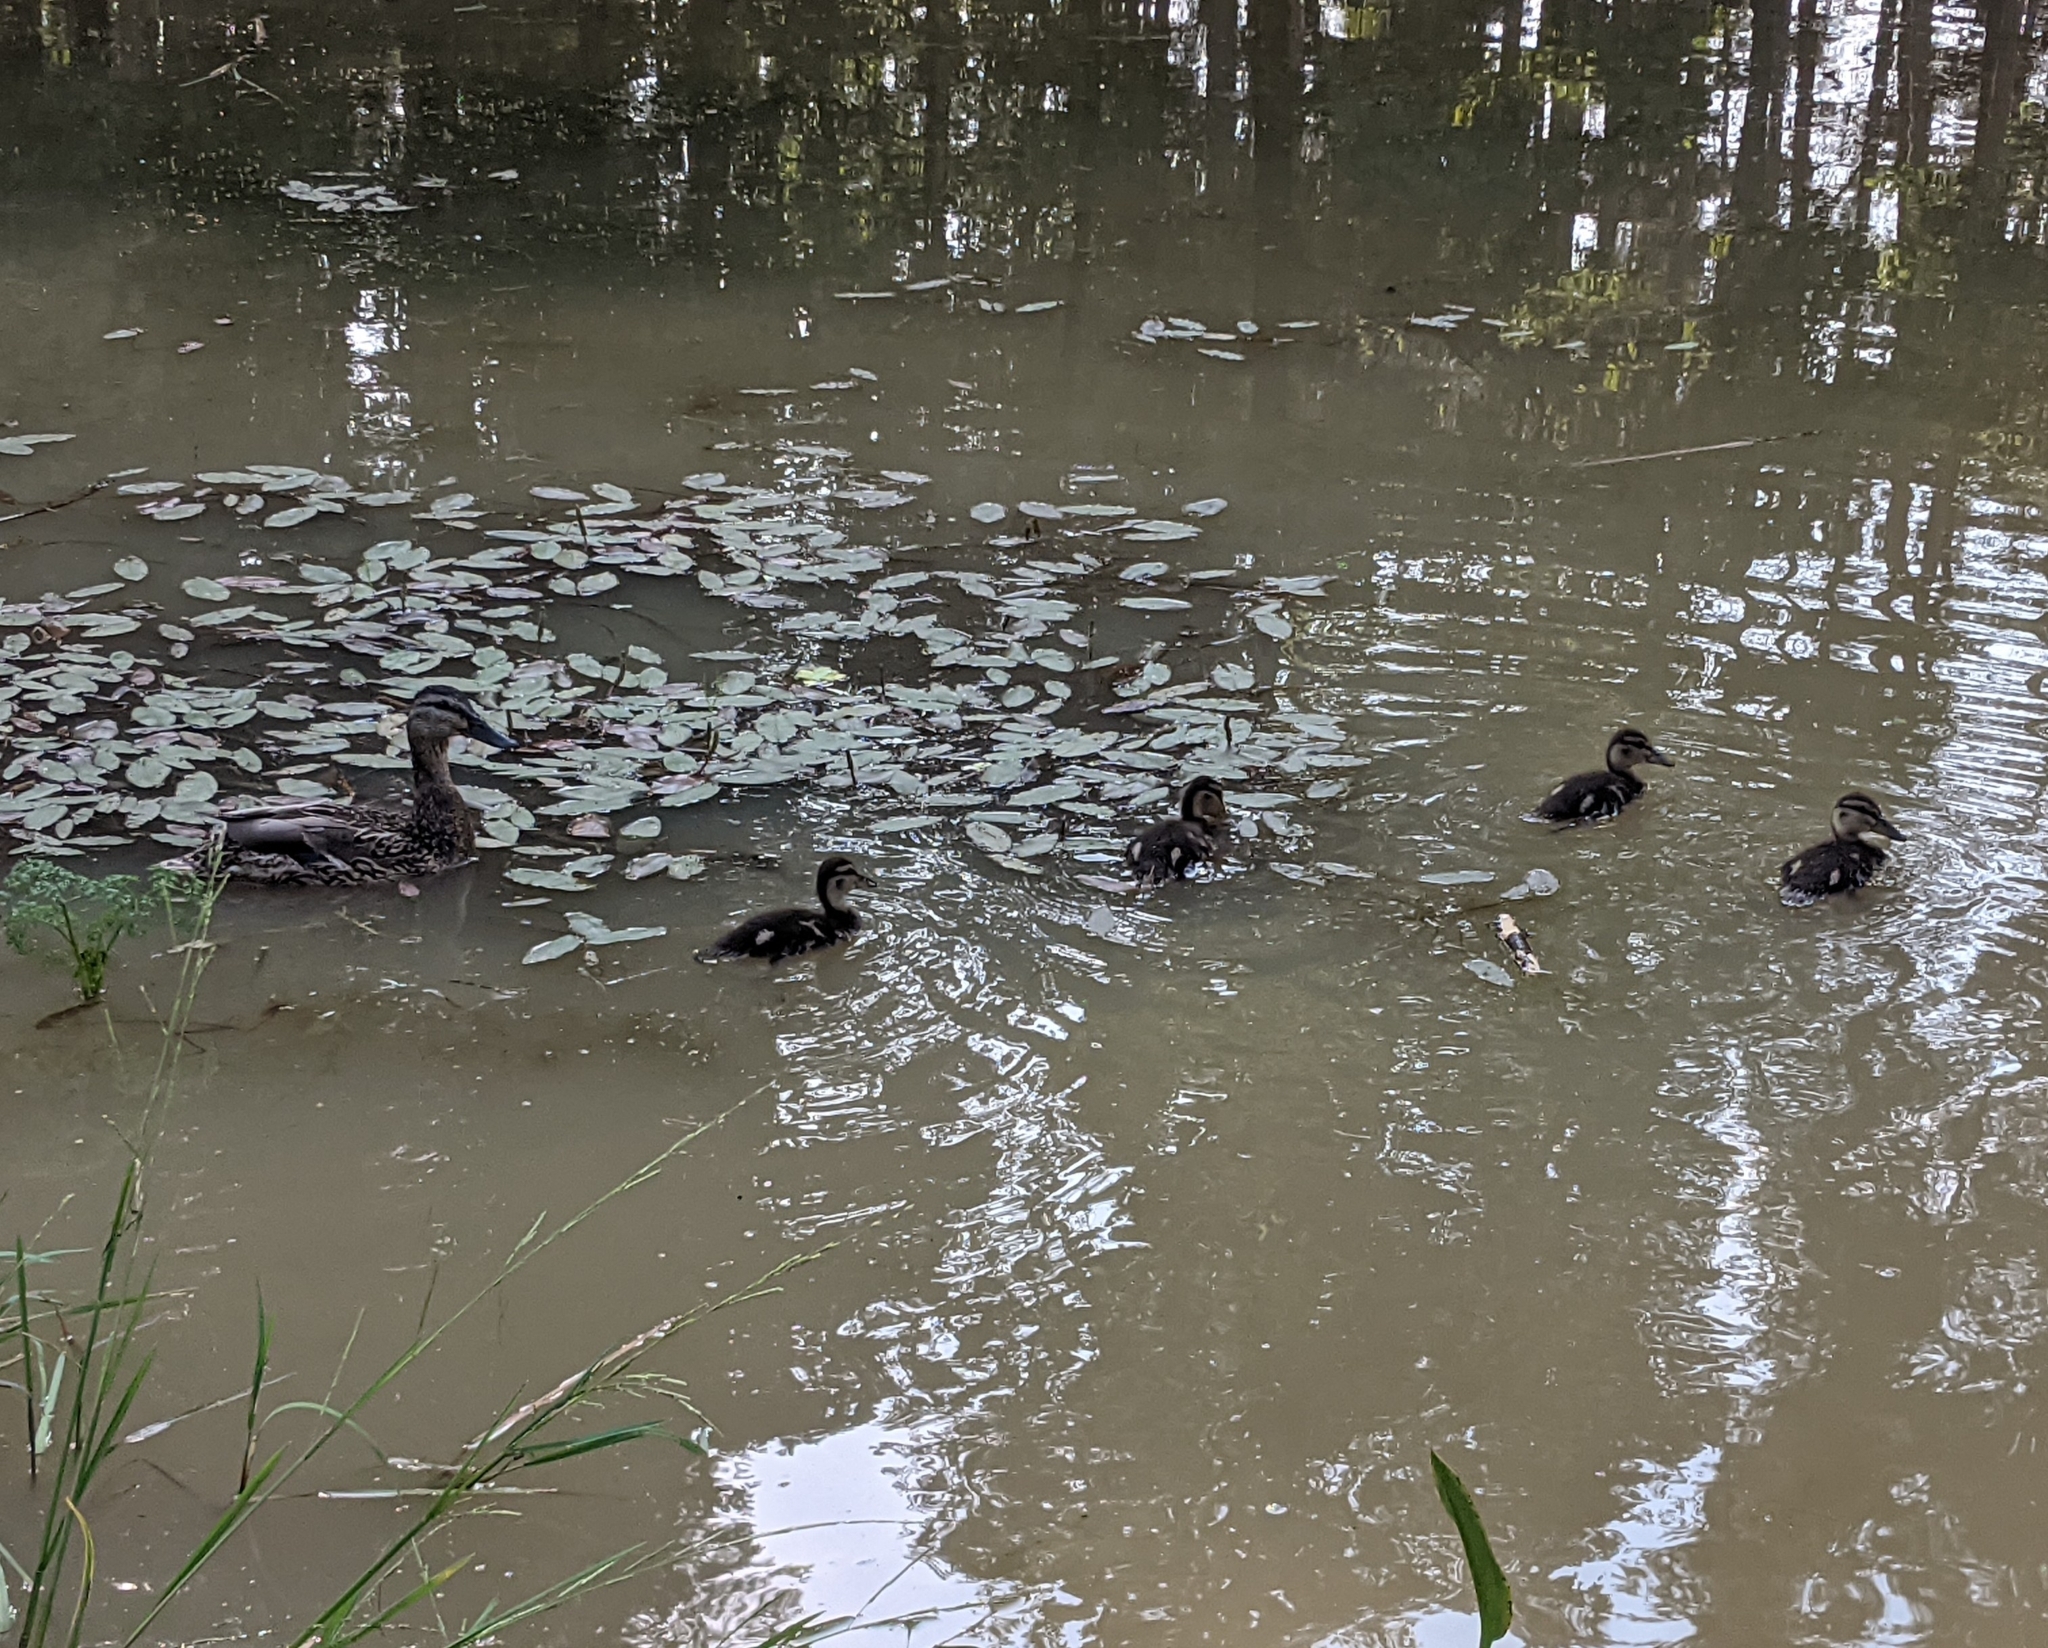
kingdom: Animalia
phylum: Chordata
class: Aves
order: Anseriformes
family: Anatidae
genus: Anas
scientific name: Anas platyrhynchos
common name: Mallard
